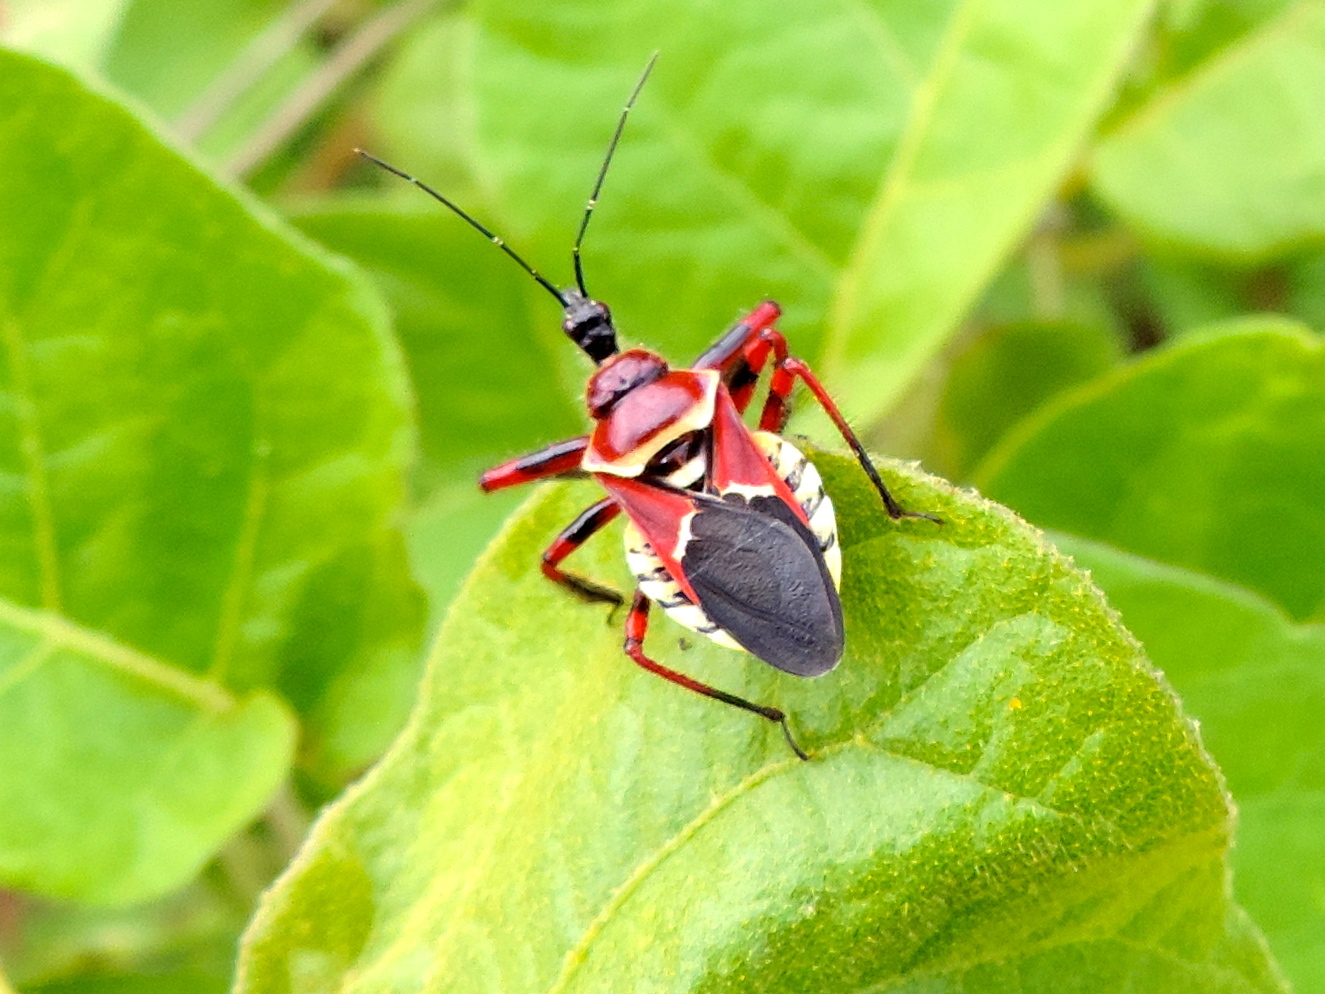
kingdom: Animalia
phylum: Arthropoda
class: Insecta
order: Hemiptera
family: Reduviidae
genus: Apiomerus
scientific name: Apiomerus flaviventris
